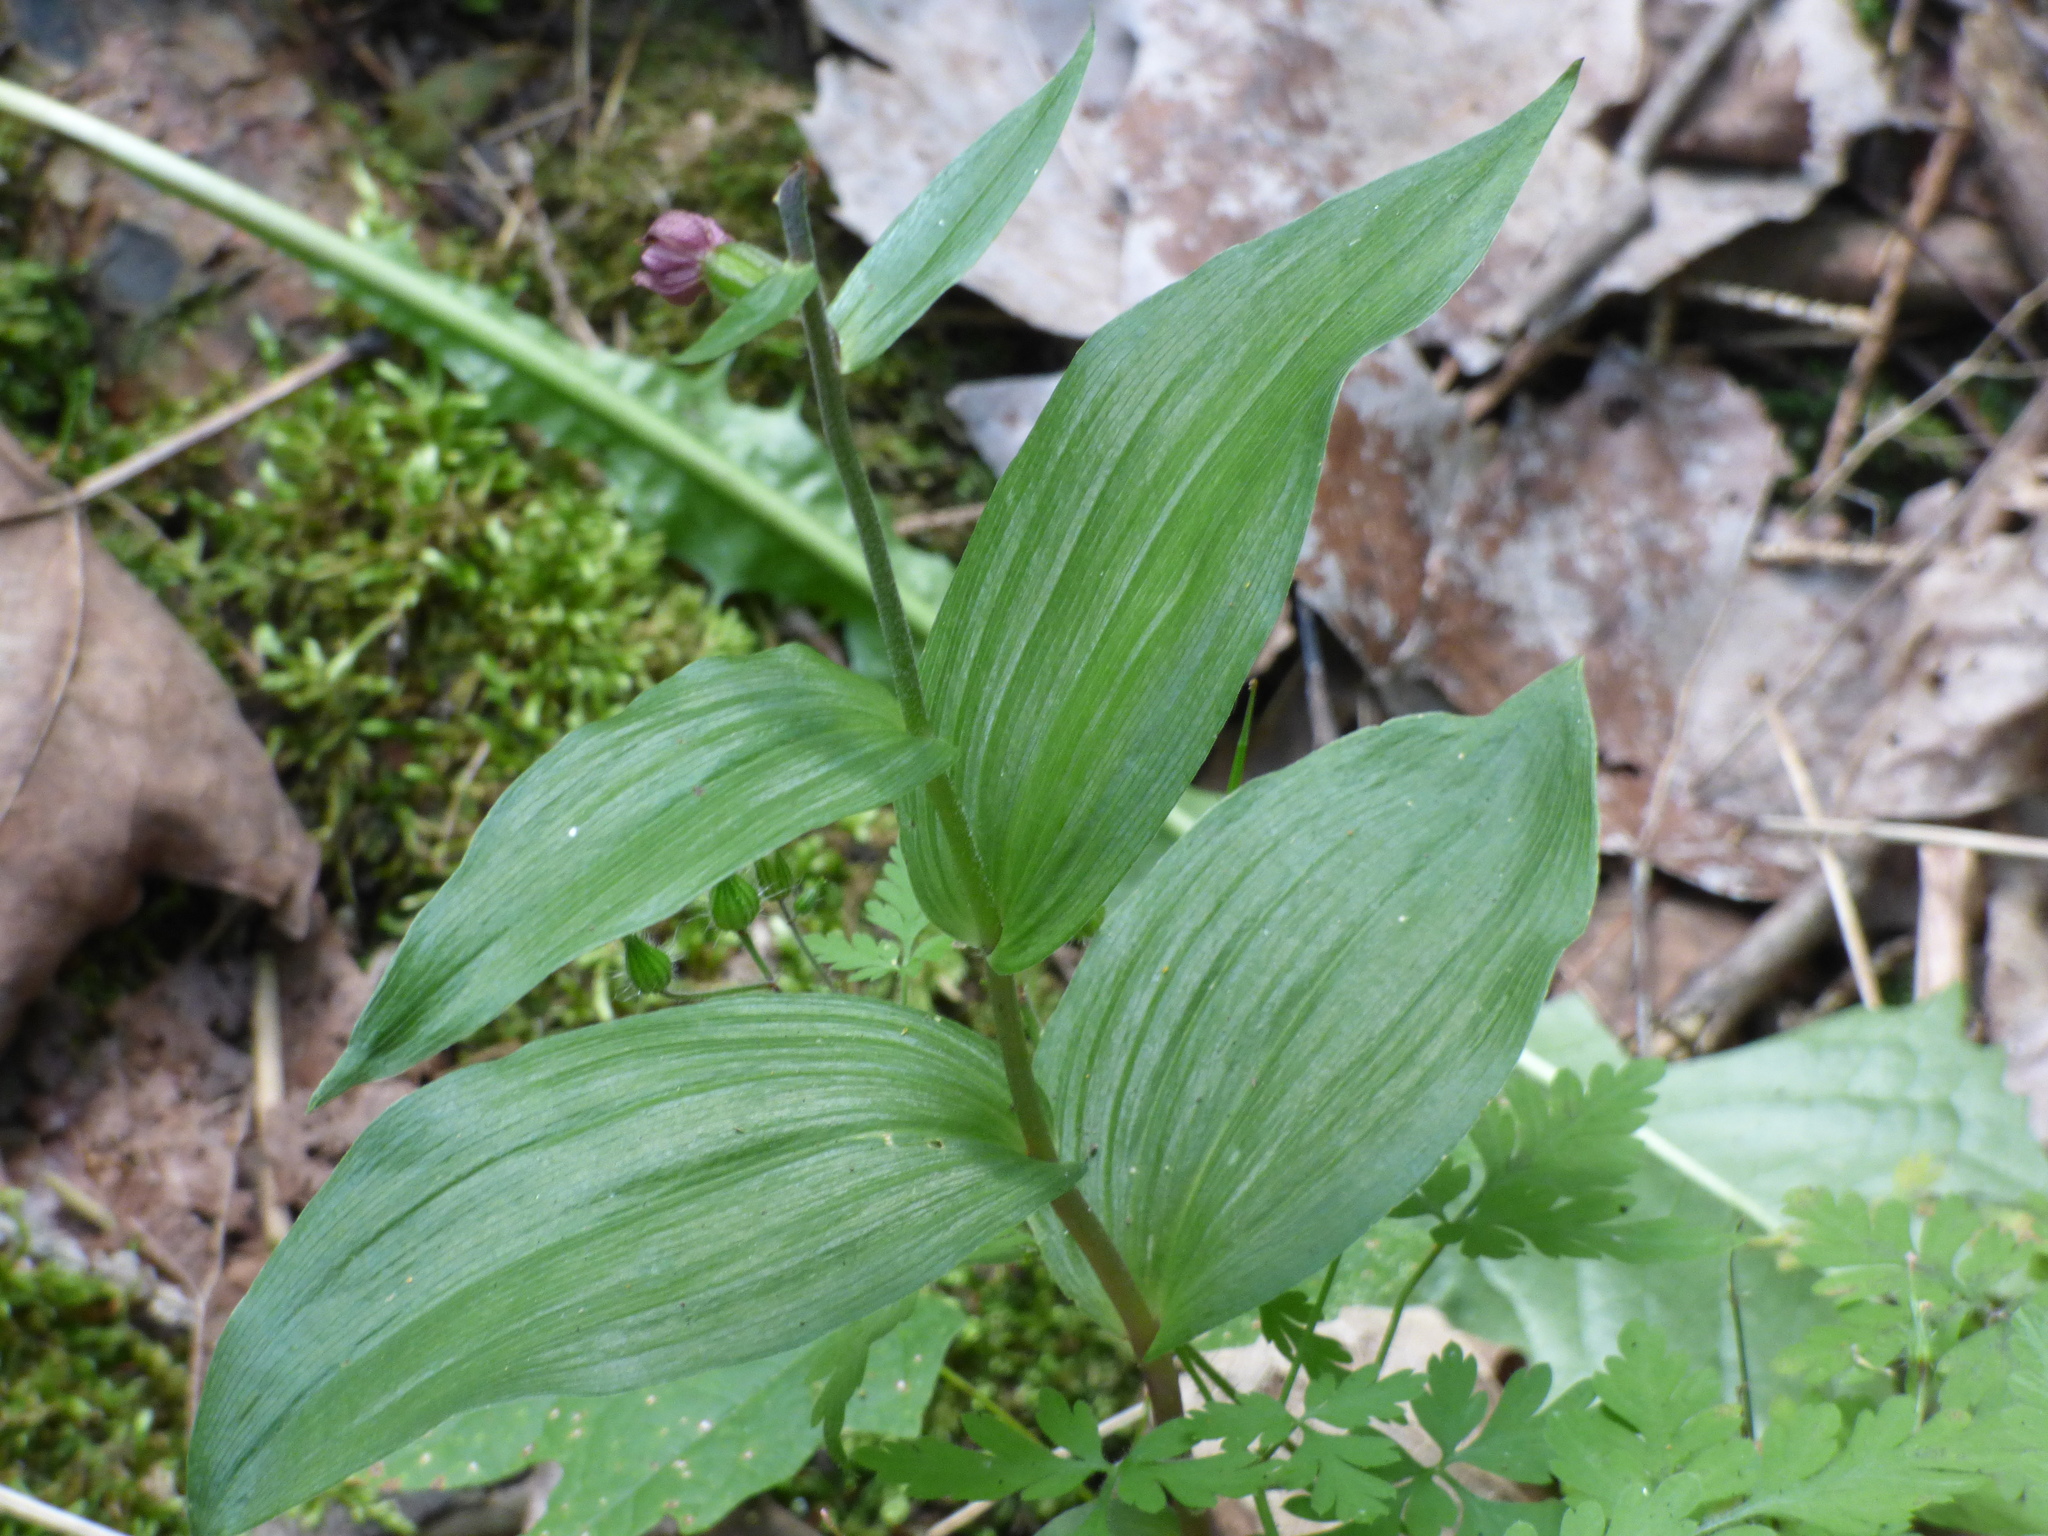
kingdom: Plantae
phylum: Tracheophyta
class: Liliopsida
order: Asparagales
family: Orchidaceae
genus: Epipactis
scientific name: Epipactis helleborine
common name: Broad-leaved helleborine
